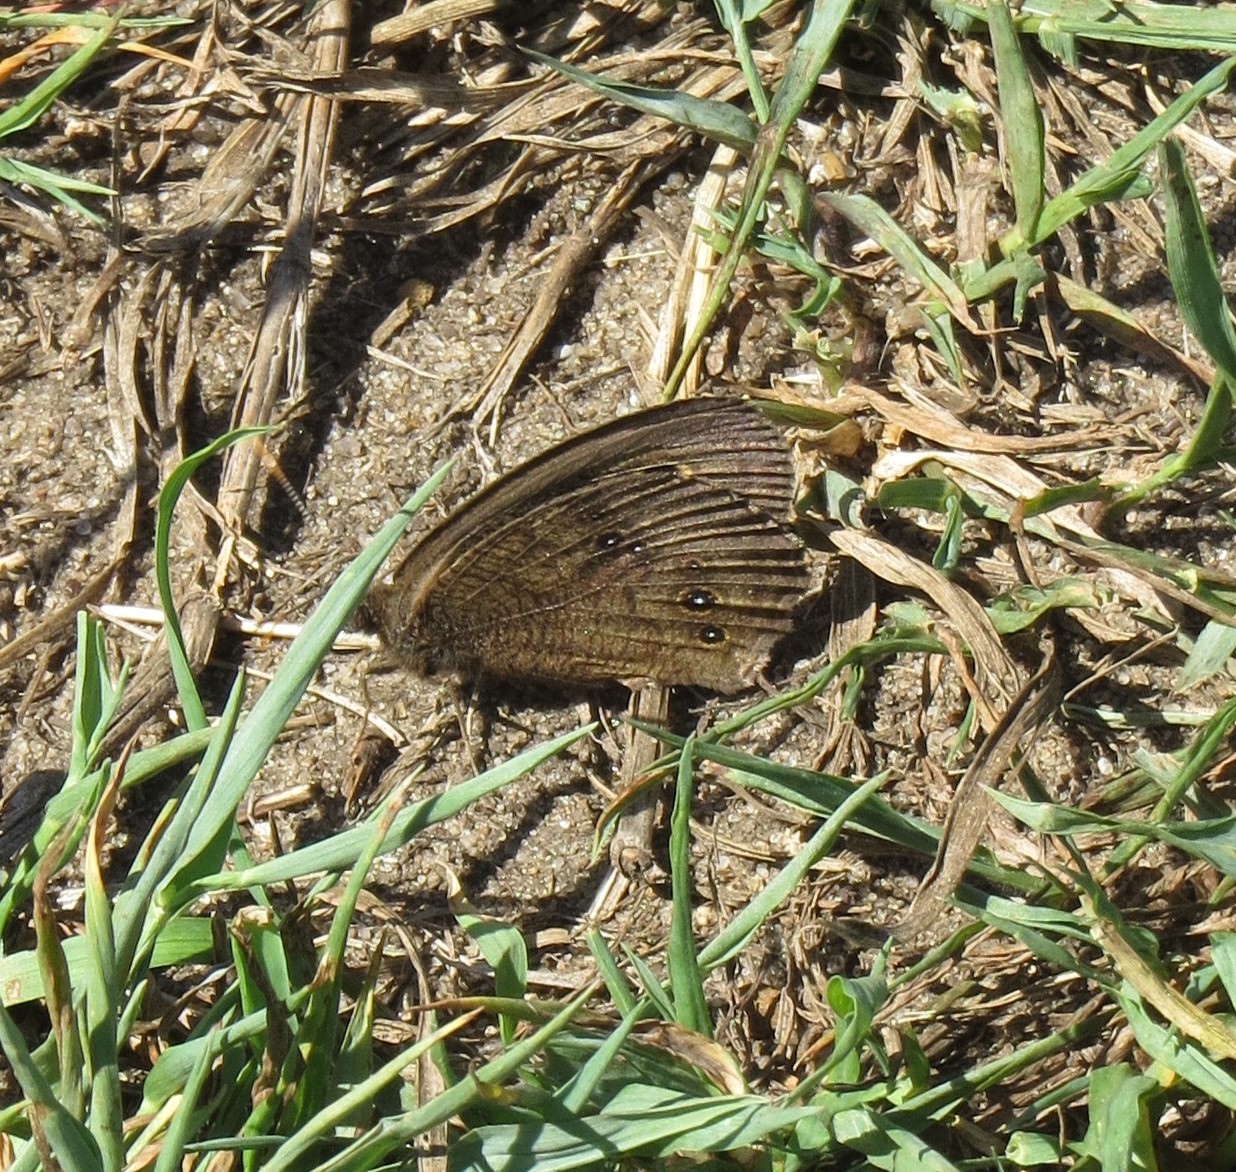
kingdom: Animalia
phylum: Arthropoda
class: Insecta
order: Lepidoptera
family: Nymphalidae
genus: Cercyonis
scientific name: Cercyonis pegala
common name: Common wood-nymph
